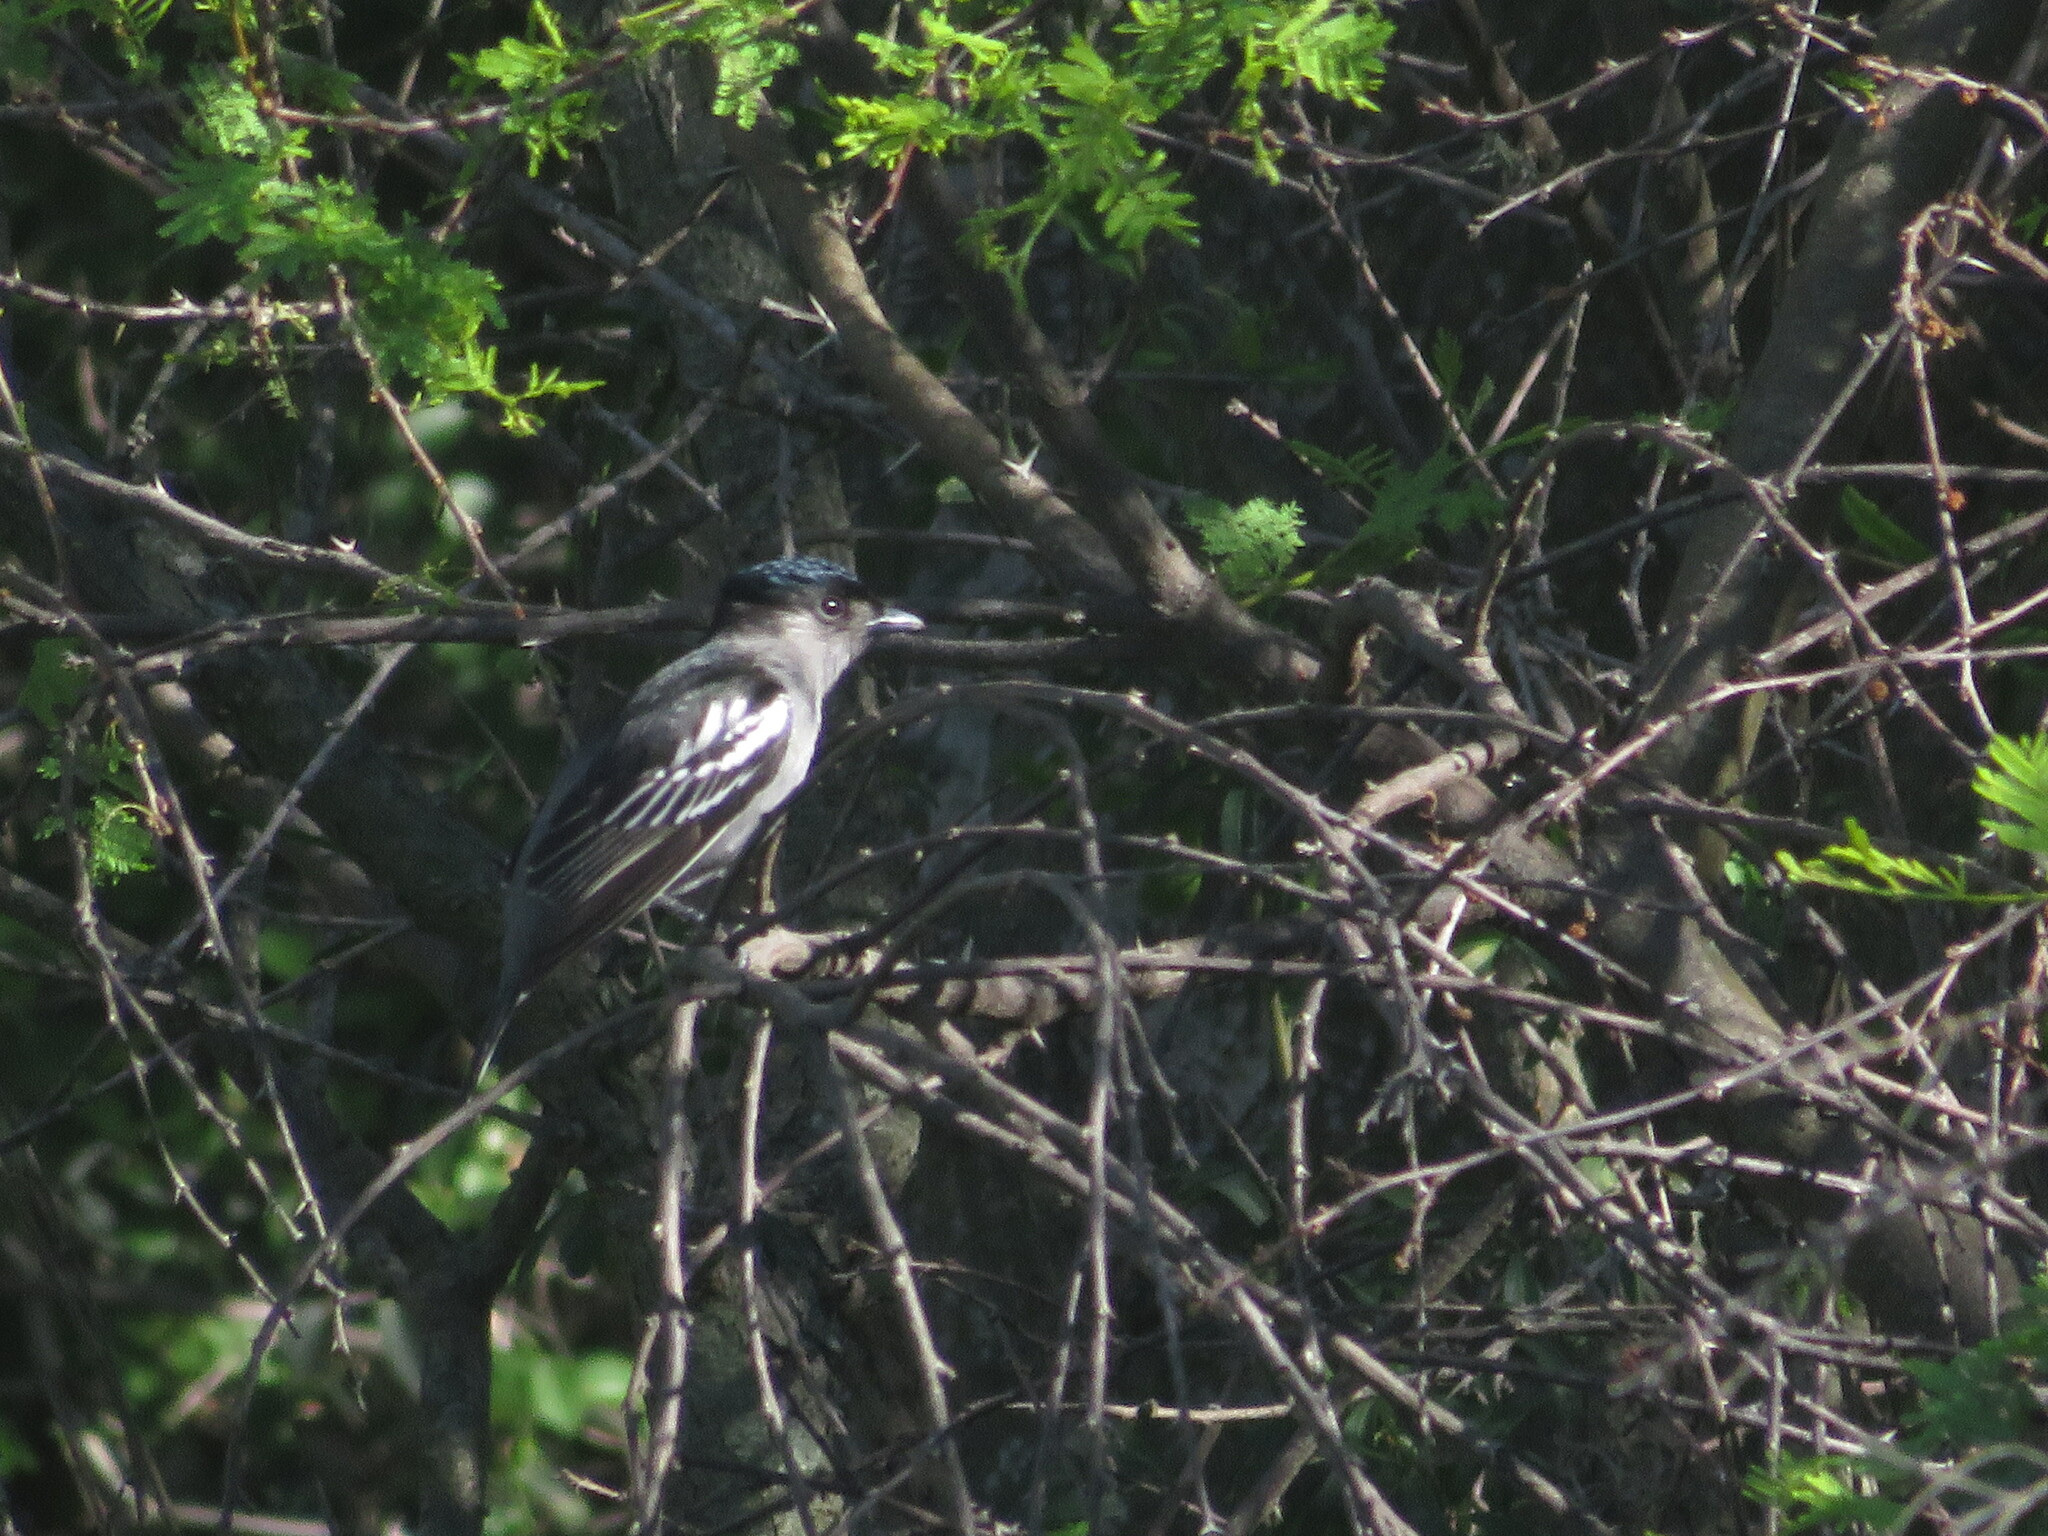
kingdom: Animalia
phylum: Chordata
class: Aves
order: Passeriformes
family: Cotingidae
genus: Pachyramphus
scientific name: Pachyramphus polychopterus
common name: White-winged becard
